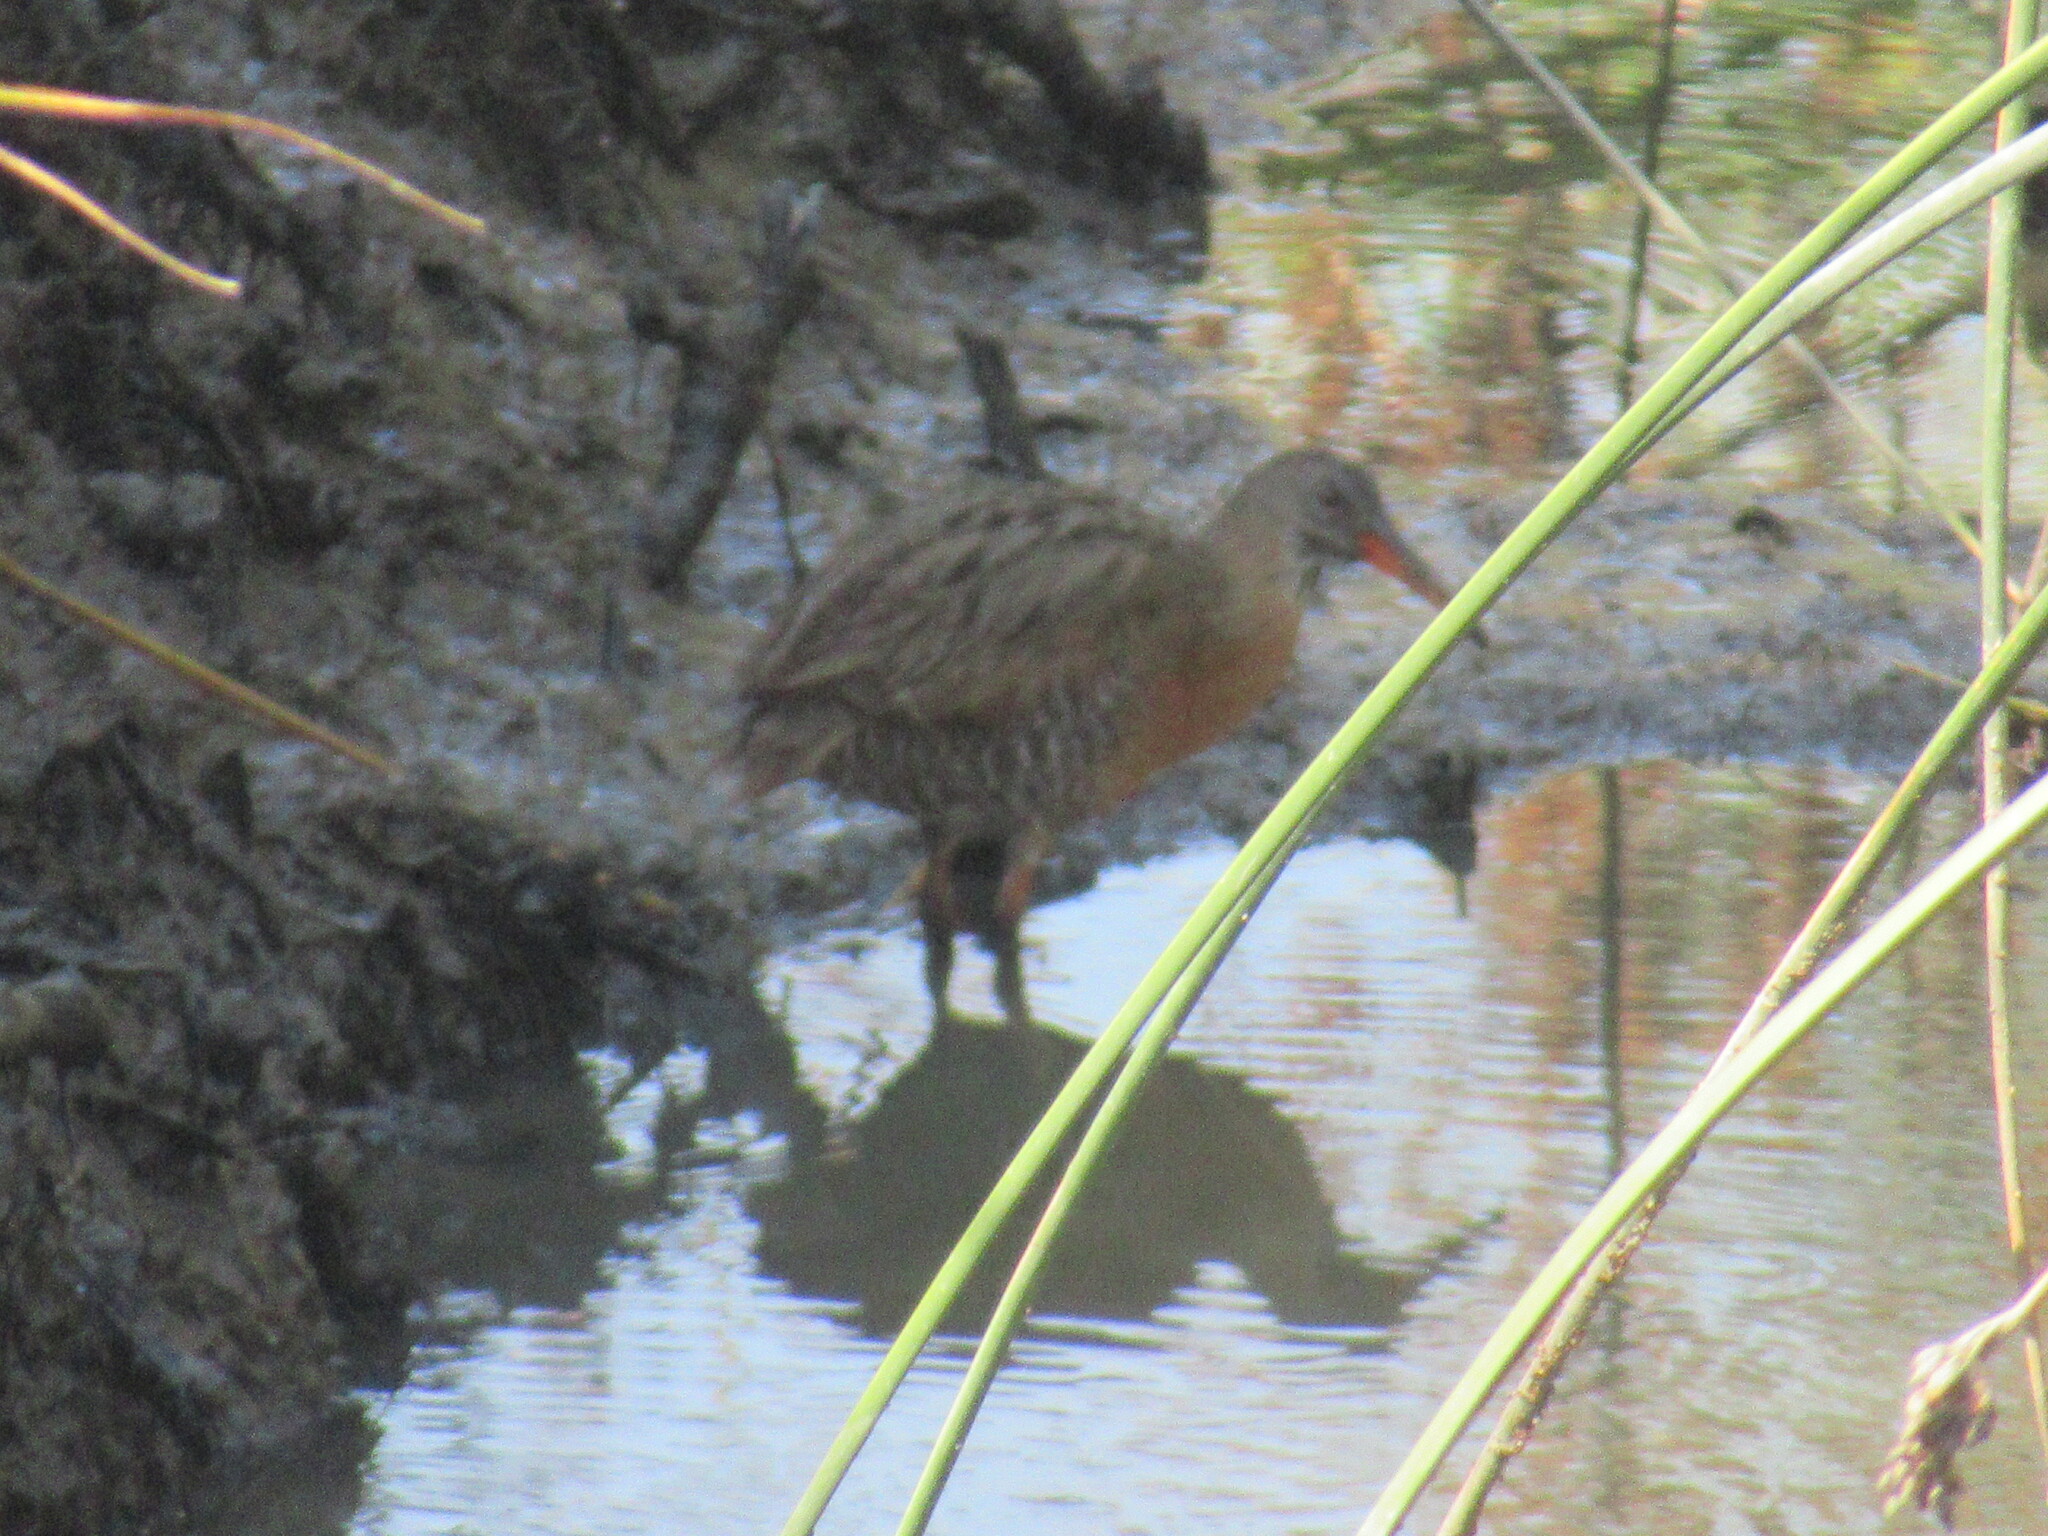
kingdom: Animalia
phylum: Chordata
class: Aves
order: Gruiformes
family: Rallidae
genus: Rallus
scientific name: Rallus obsoletus
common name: Ridgway's rail
